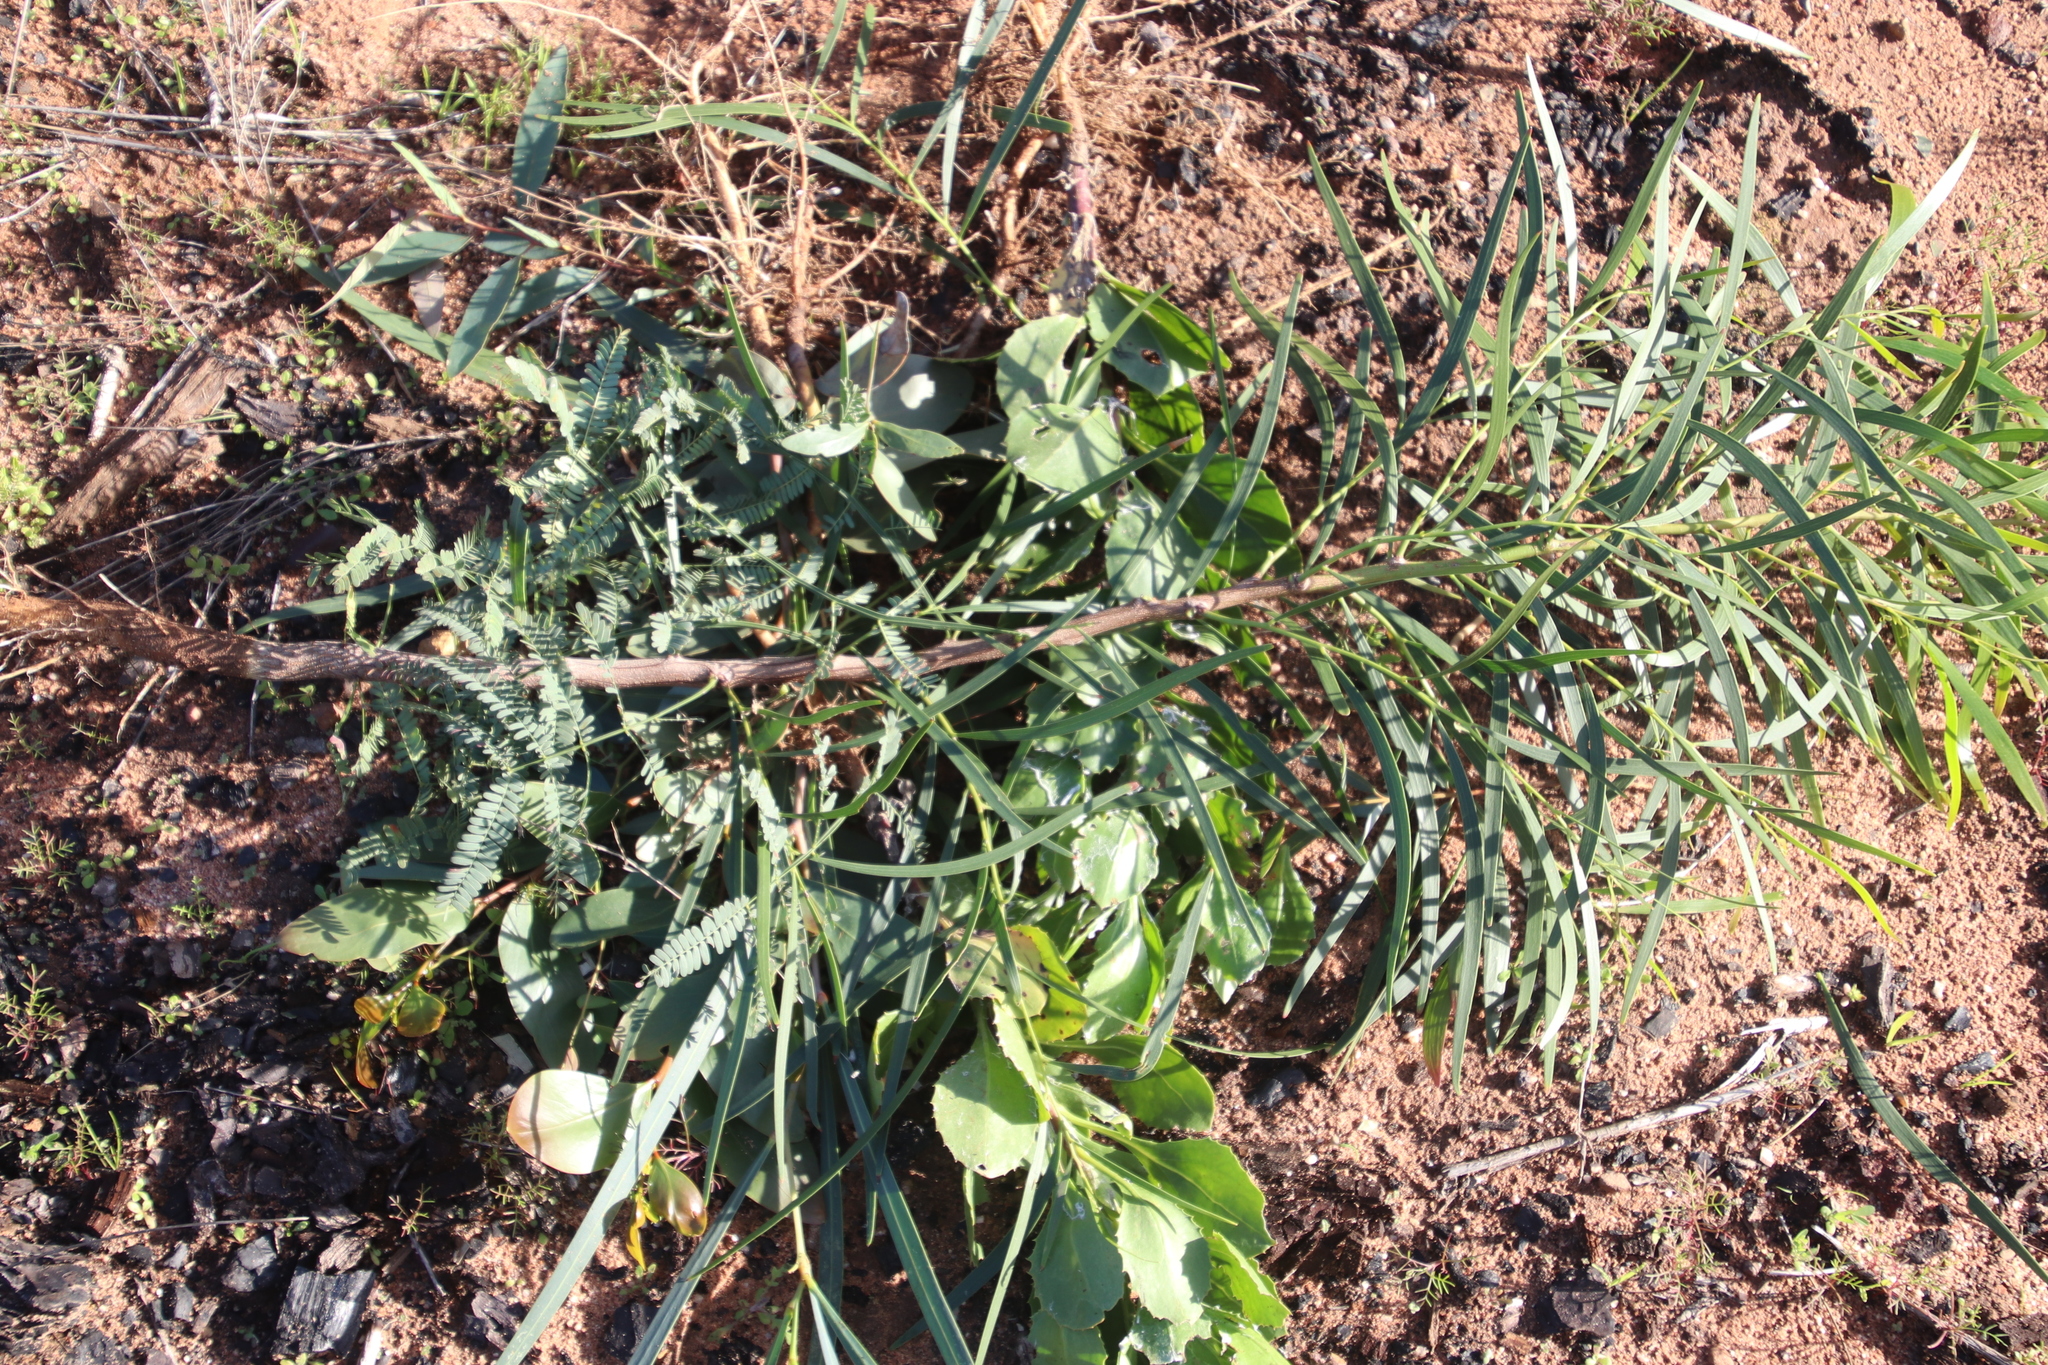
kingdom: Plantae
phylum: Tracheophyta
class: Magnoliopsida
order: Fabales
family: Fabaceae
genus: Acacia
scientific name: Acacia implexa
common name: Black wattle
